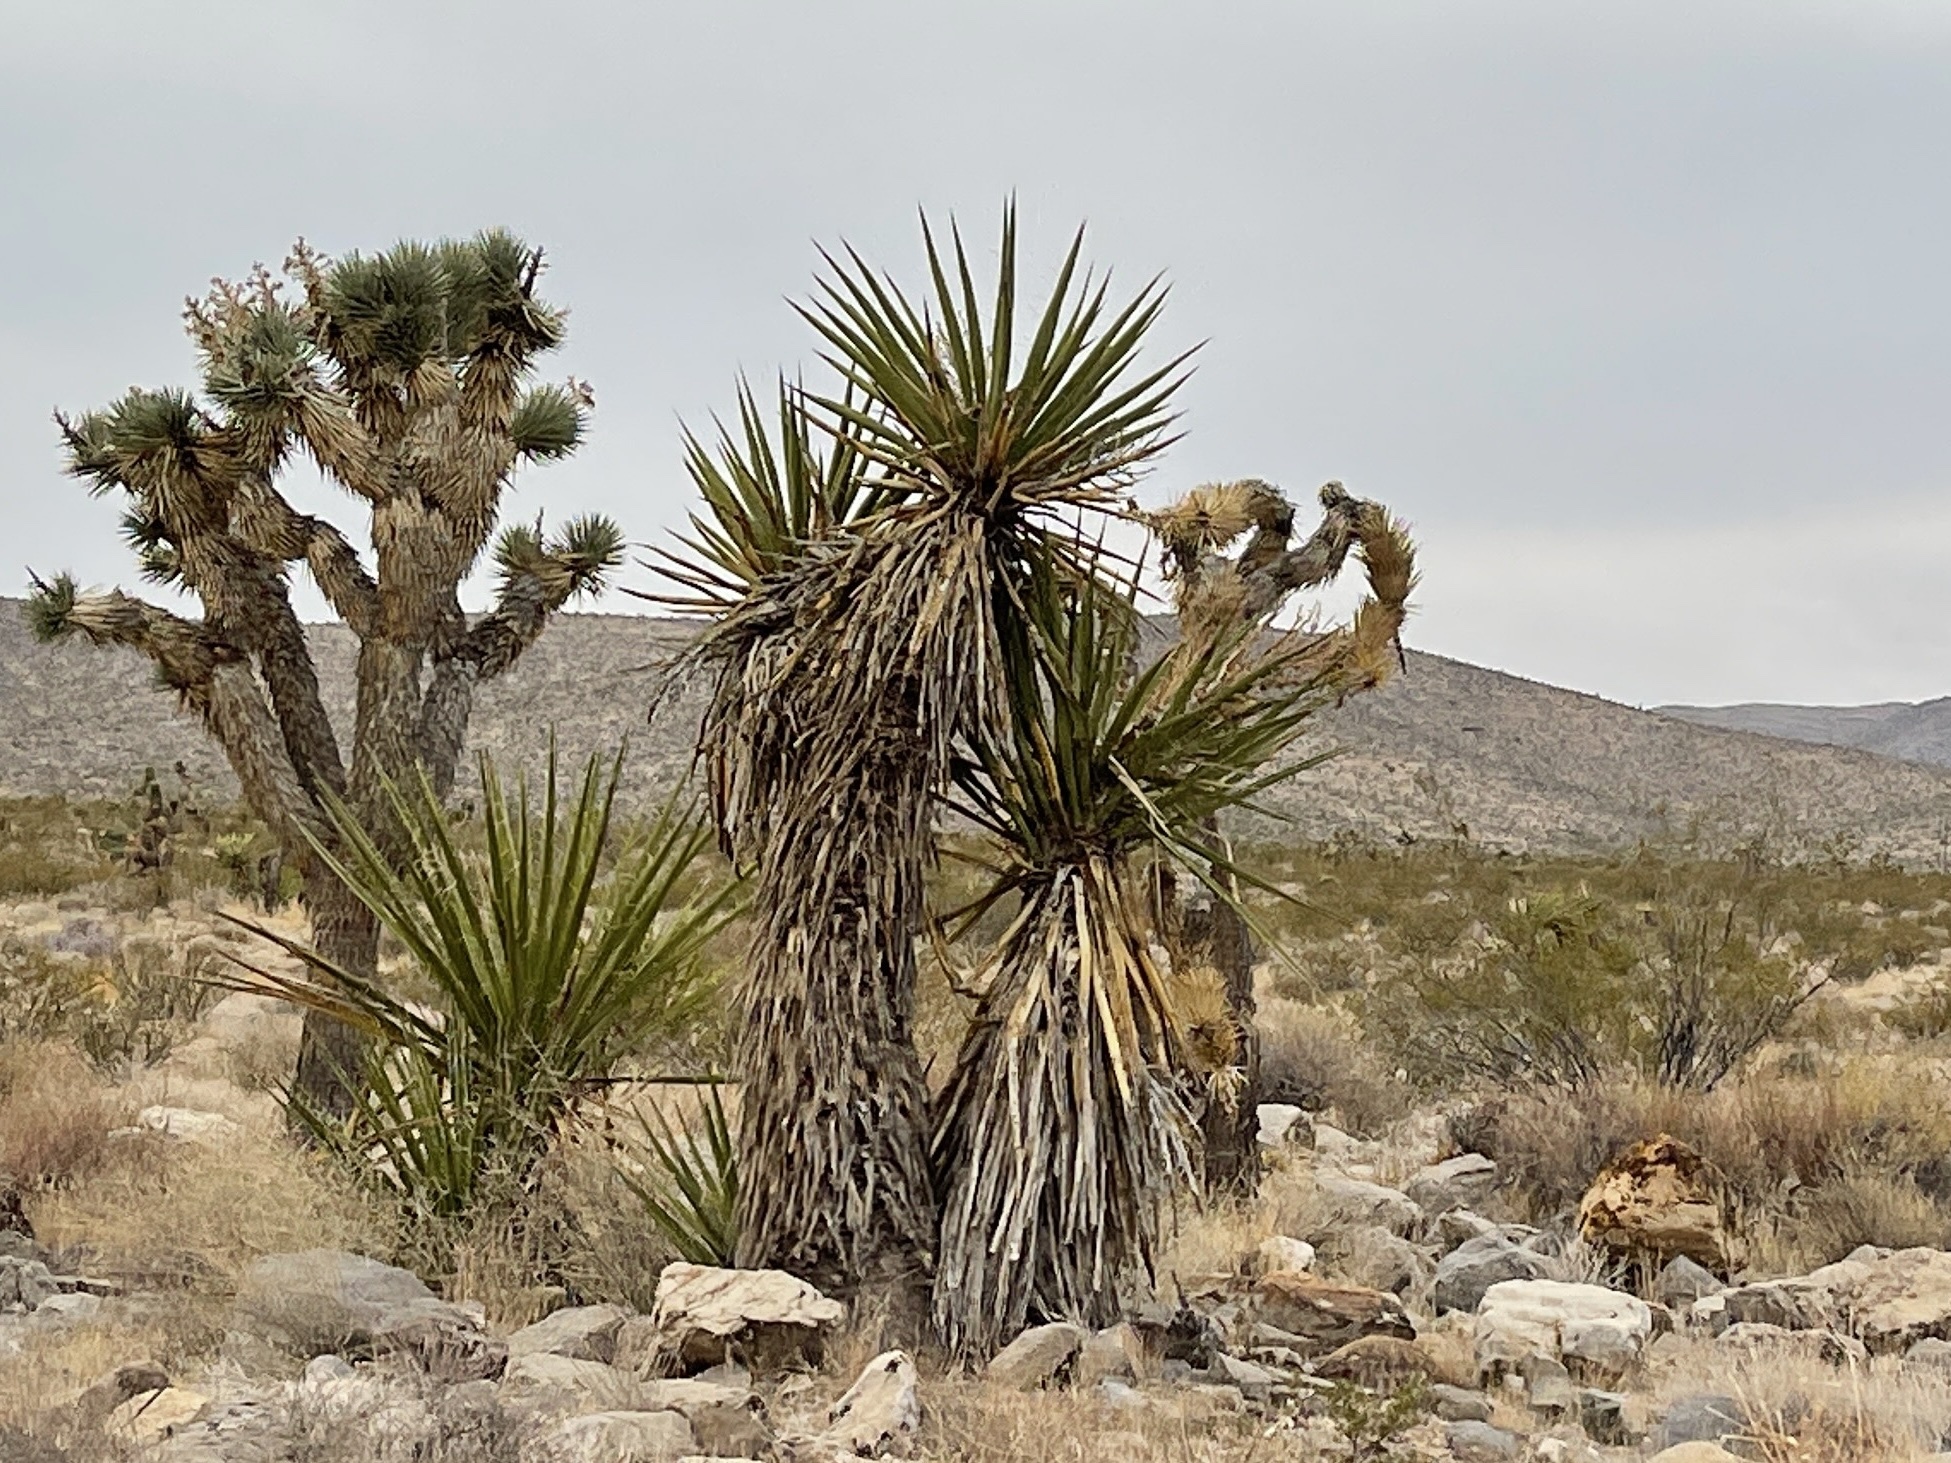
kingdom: Plantae
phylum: Tracheophyta
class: Liliopsida
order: Asparagales
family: Asparagaceae
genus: Yucca
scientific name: Yucca schidigera
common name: Mojave yucca
